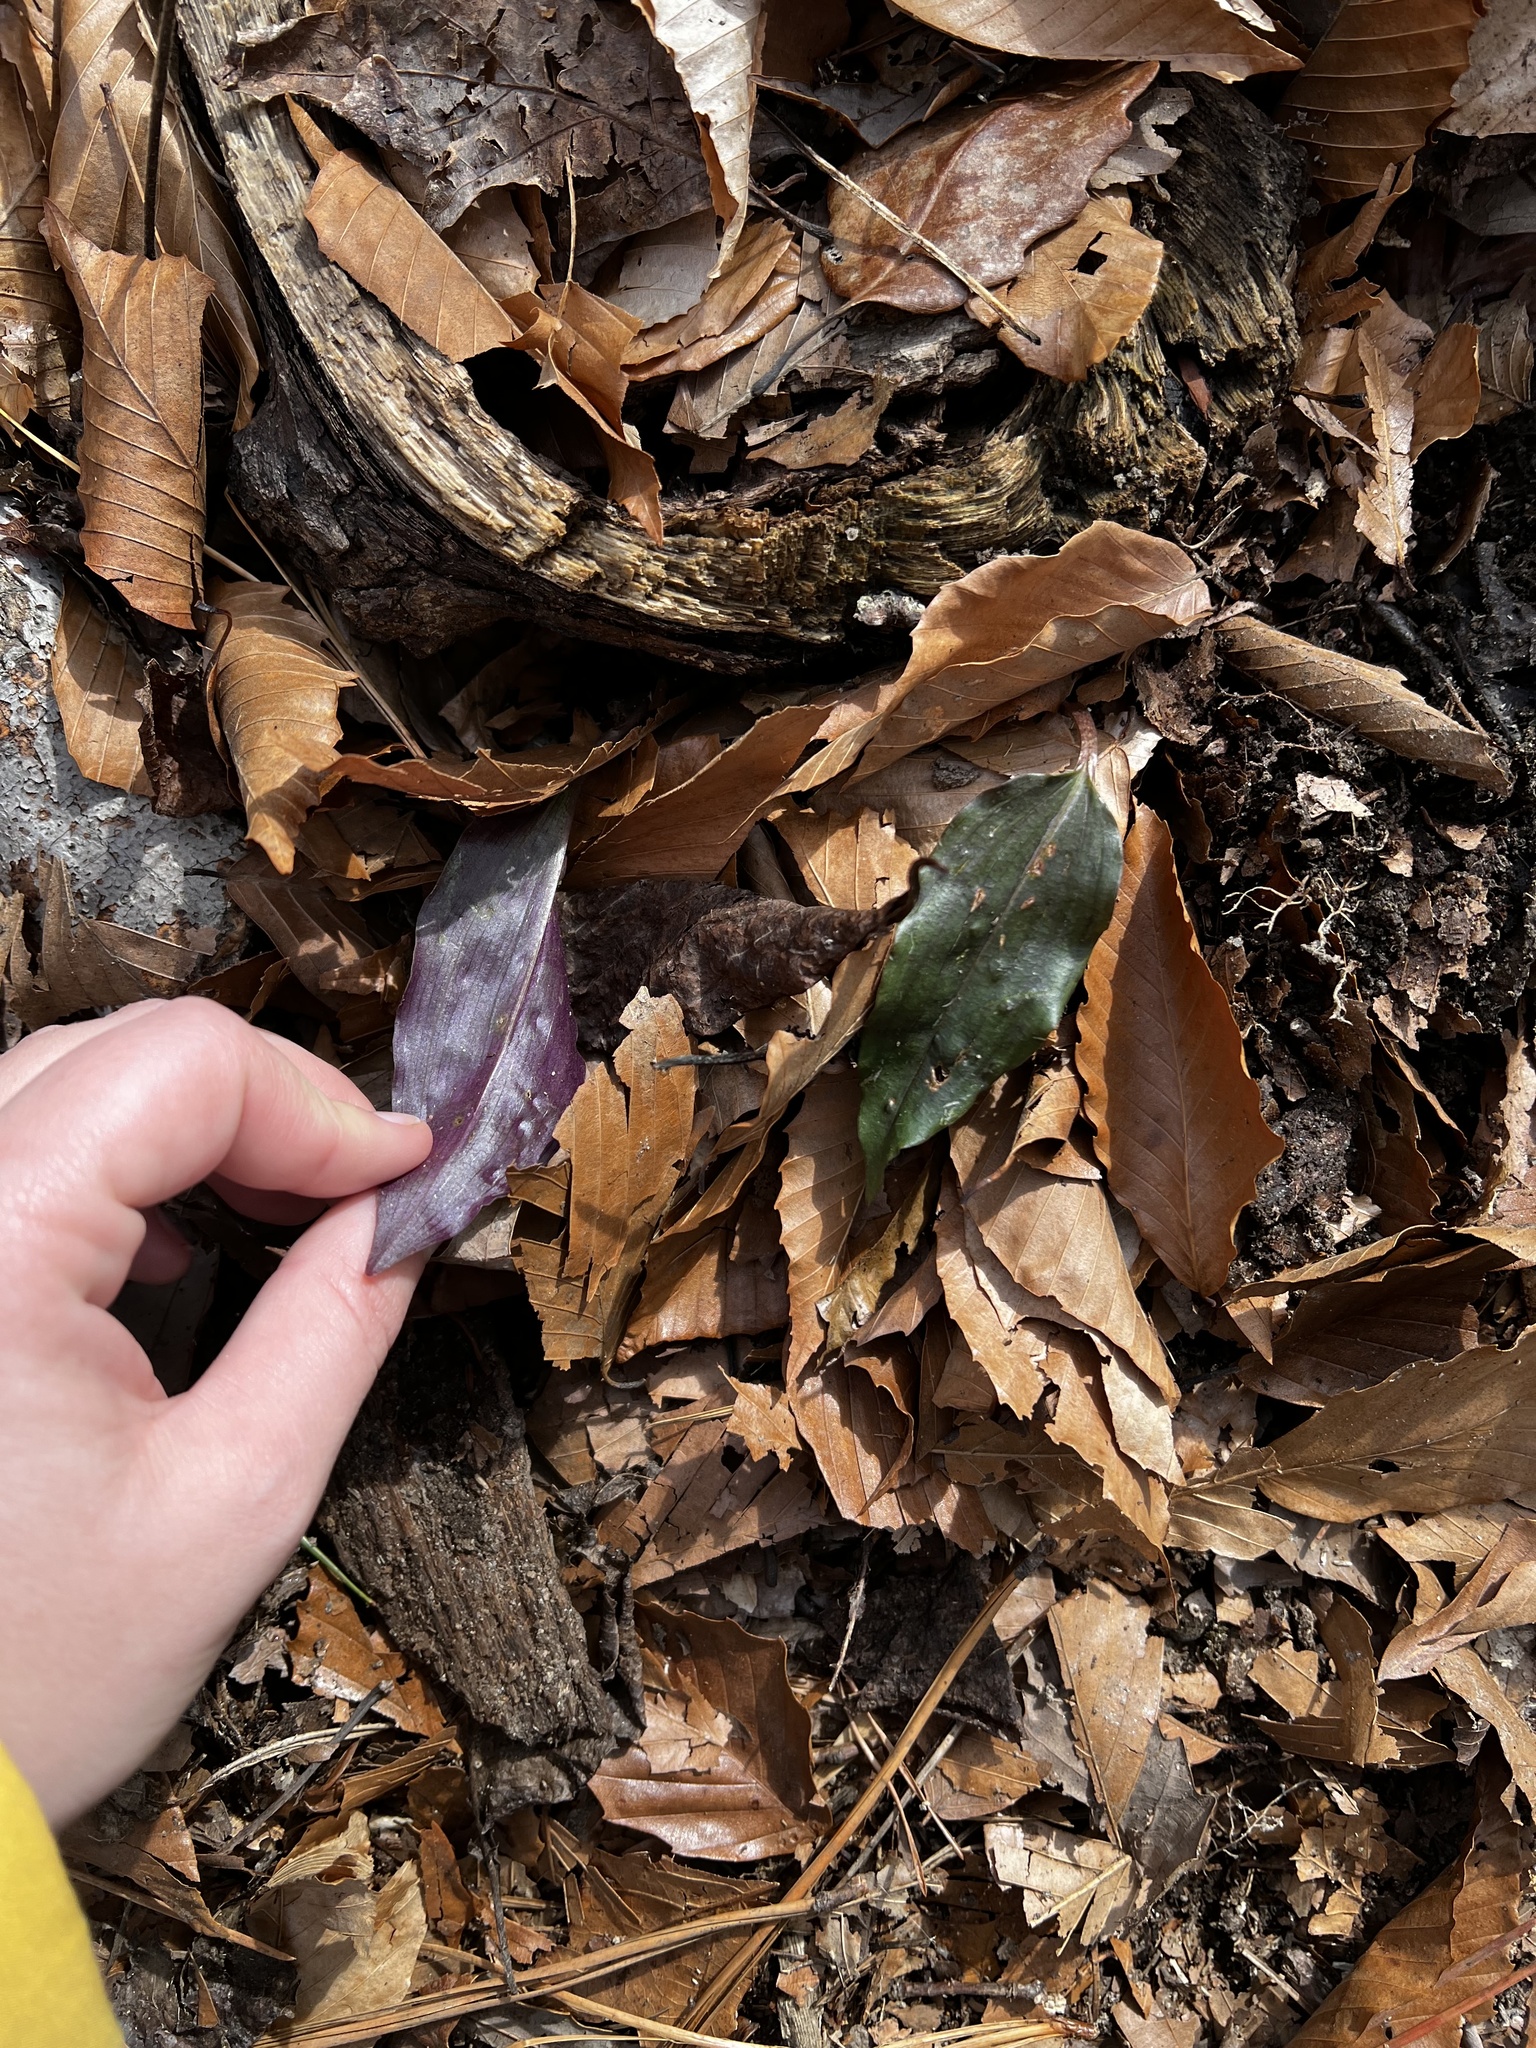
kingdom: Plantae
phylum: Tracheophyta
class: Liliopsida
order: Asparagales
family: Orchidaceae
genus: Tipularia
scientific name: Tipularia discolor
